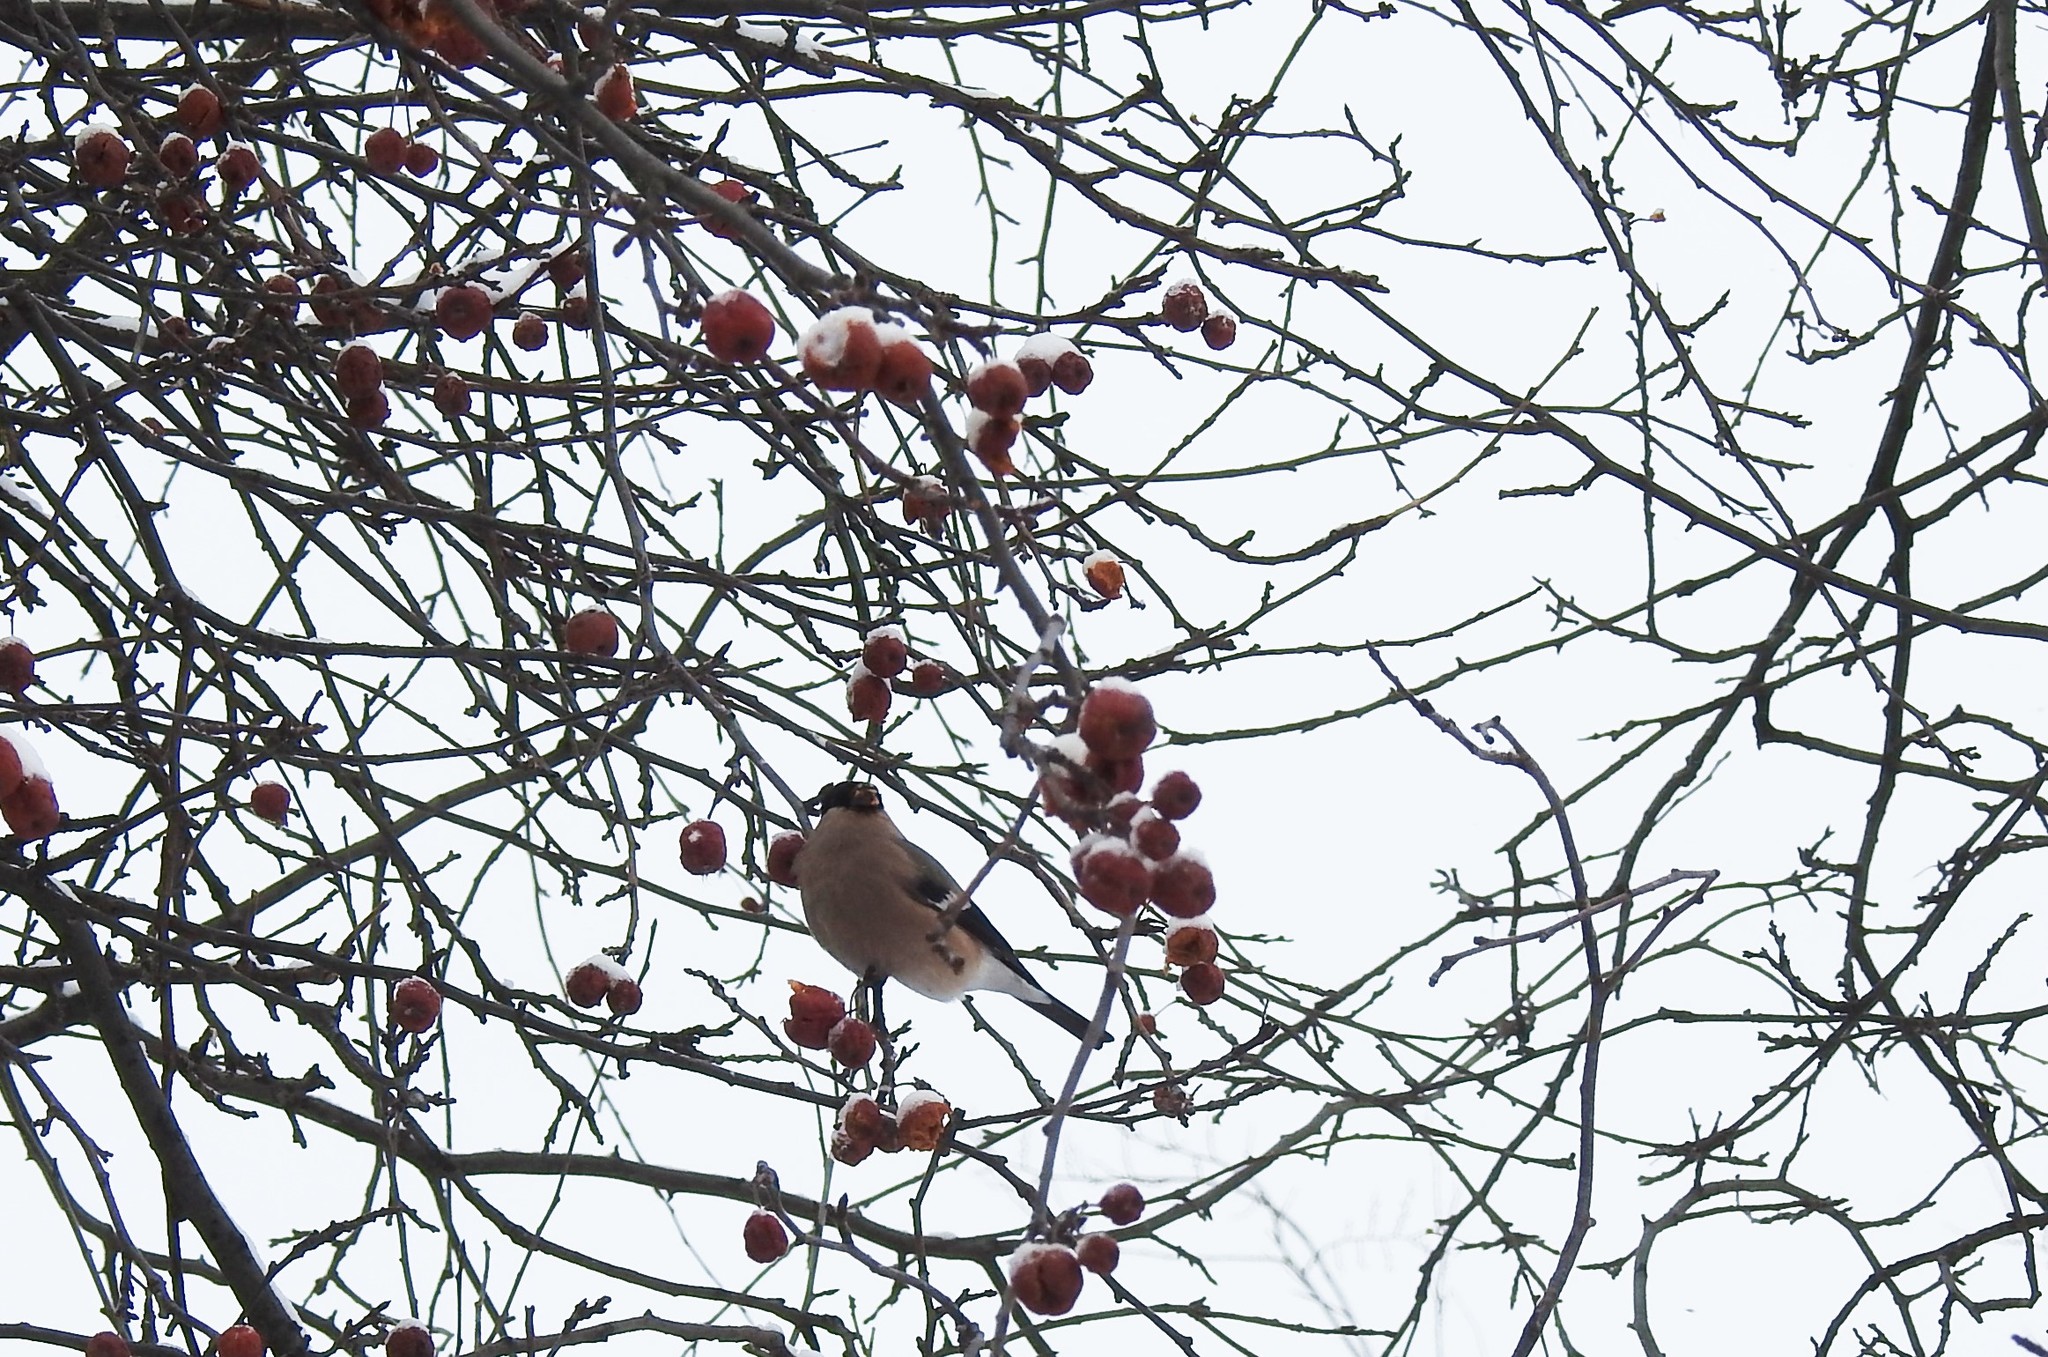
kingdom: Animalia
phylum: Chordata
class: Aves
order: Passeriformes
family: Fringillidae
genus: Pyrrhula
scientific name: Pyrrhula pyrrhula
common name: Eurasian bullfinch
